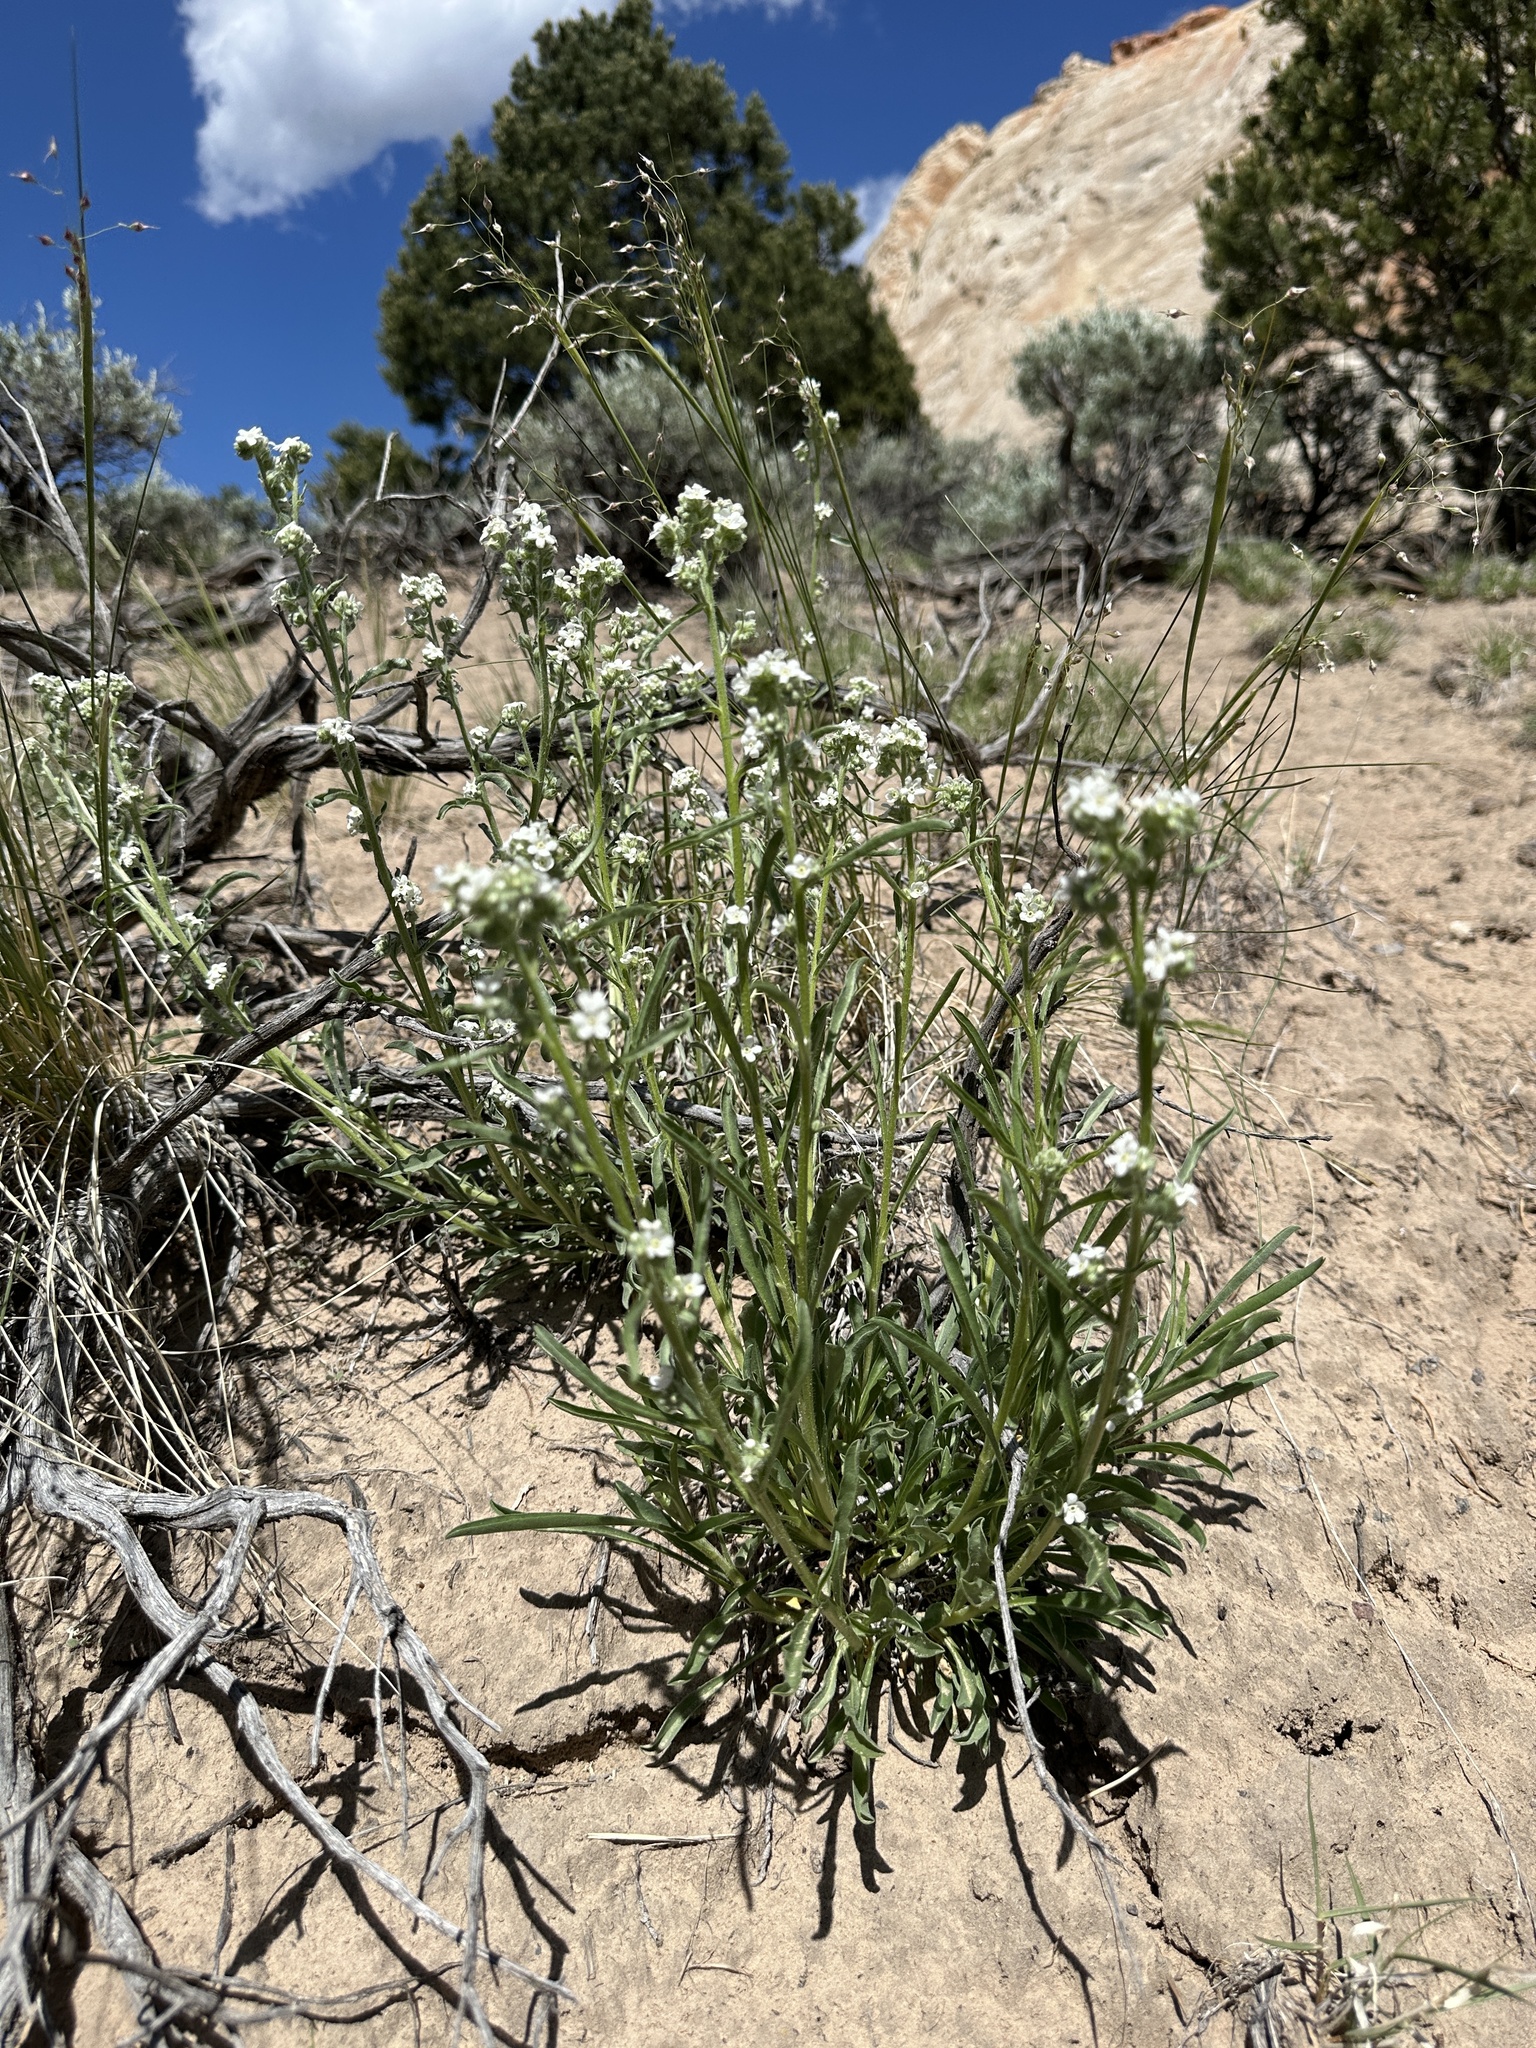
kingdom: Plantae
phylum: Tracheophyta
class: Magnoliopsida
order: Boraginales
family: Boraginaceae
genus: Oreocarya
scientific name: Oreocarya suffruticosa
